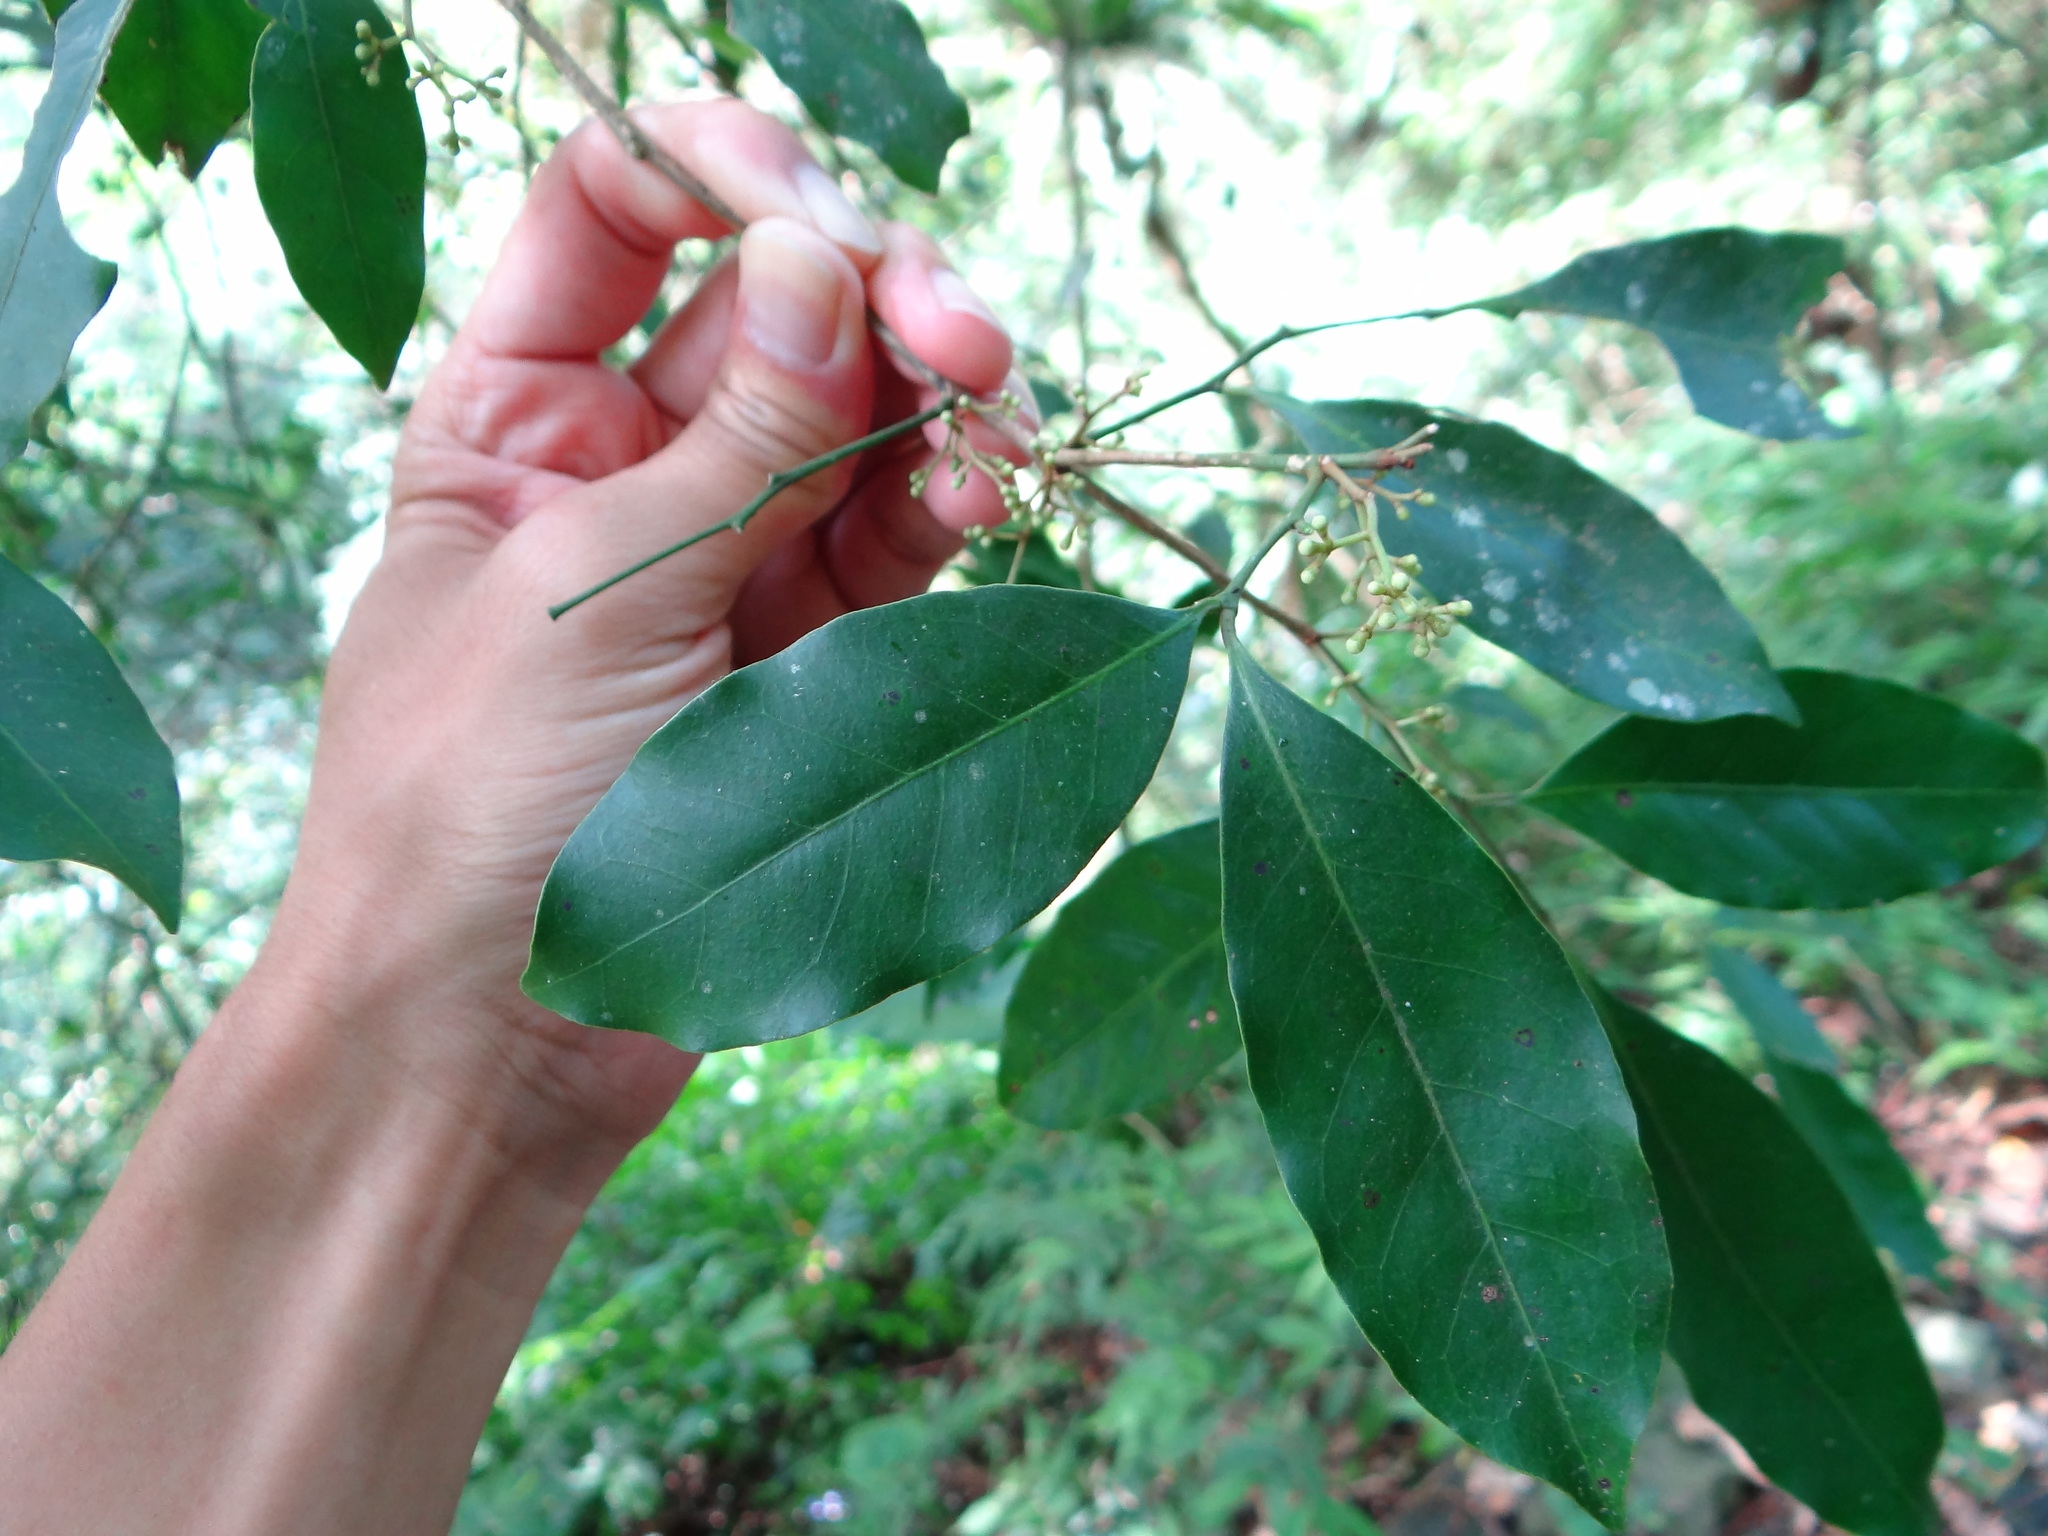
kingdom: Plantae
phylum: Tracheophyta
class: Magnoliopsida
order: Sapindales
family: Rutaceae
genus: Glycosmis
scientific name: Glycosmis parviflora
